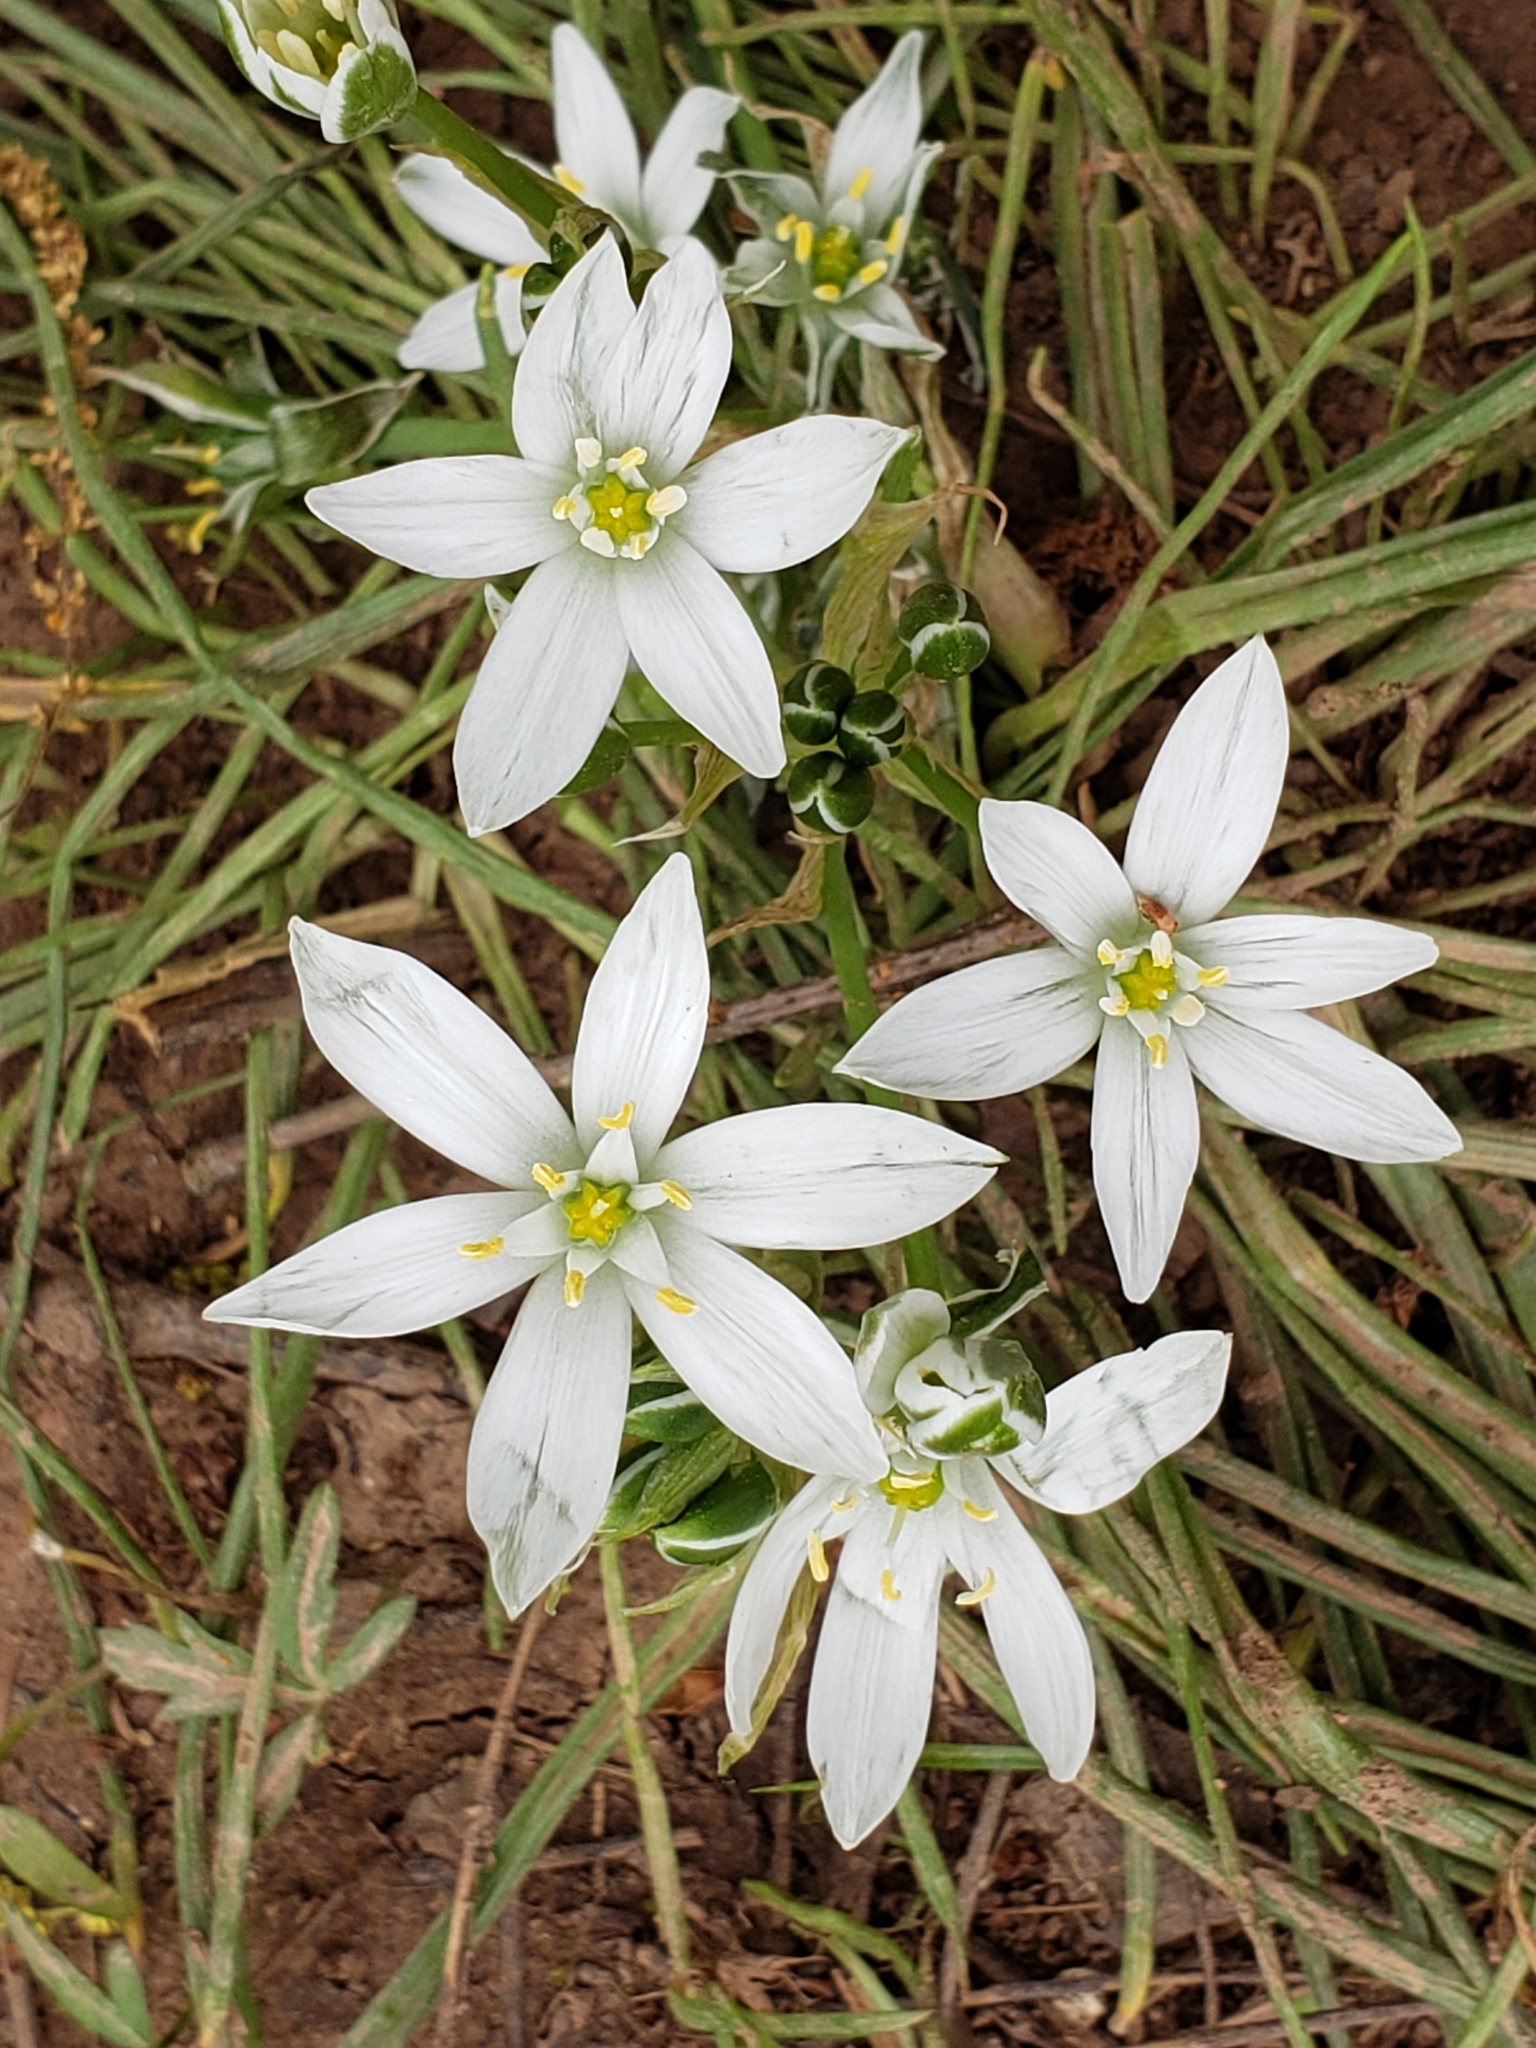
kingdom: Plantae
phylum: Tracheophyta
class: Liliopsida
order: Asparagales
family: Asparagaceae
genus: Ornithogalum
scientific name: Ornithogalum umbellatum
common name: Garden star-of-bethlehem
